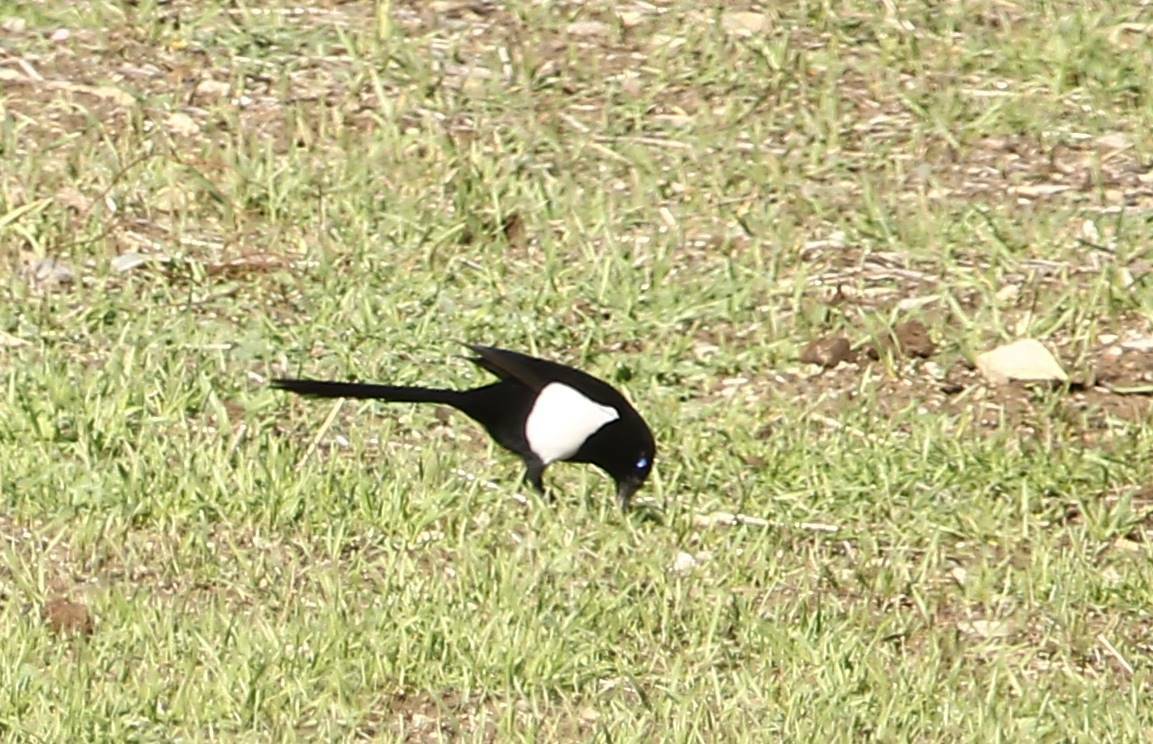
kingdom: Animalia
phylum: Chordata
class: Aves
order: Passeriformes
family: Corvidae
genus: Pica
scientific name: Pica mauritanica
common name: Maghreb magpie
